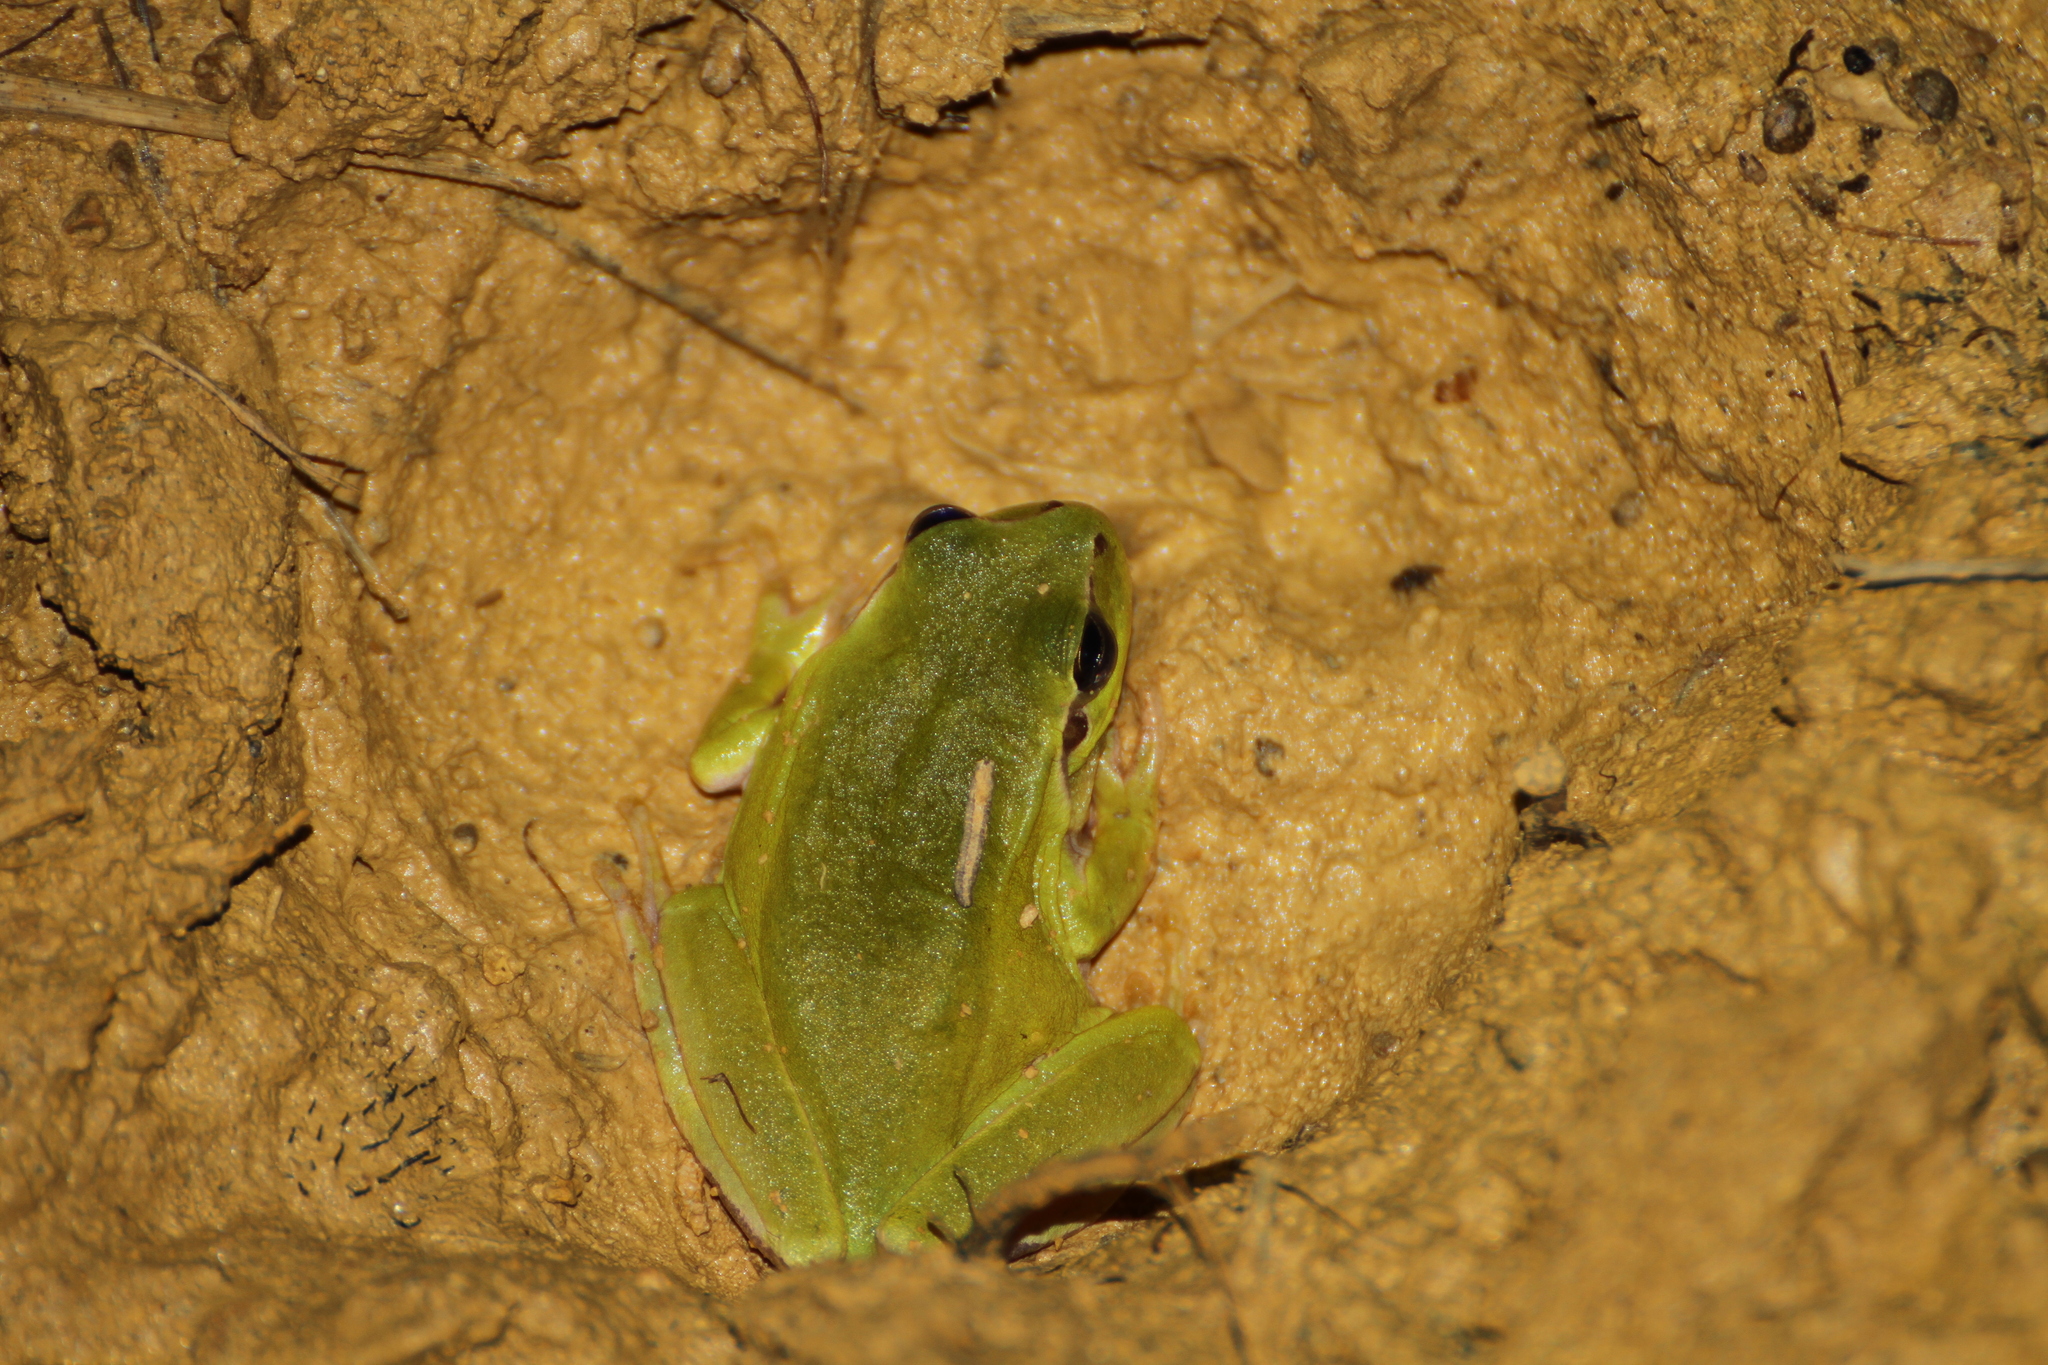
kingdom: Animalia
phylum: Chordata
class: Amphibia
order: Anura
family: Hylidae
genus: Hyla
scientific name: Hyla meridionalis
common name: Stripeless tree frog
